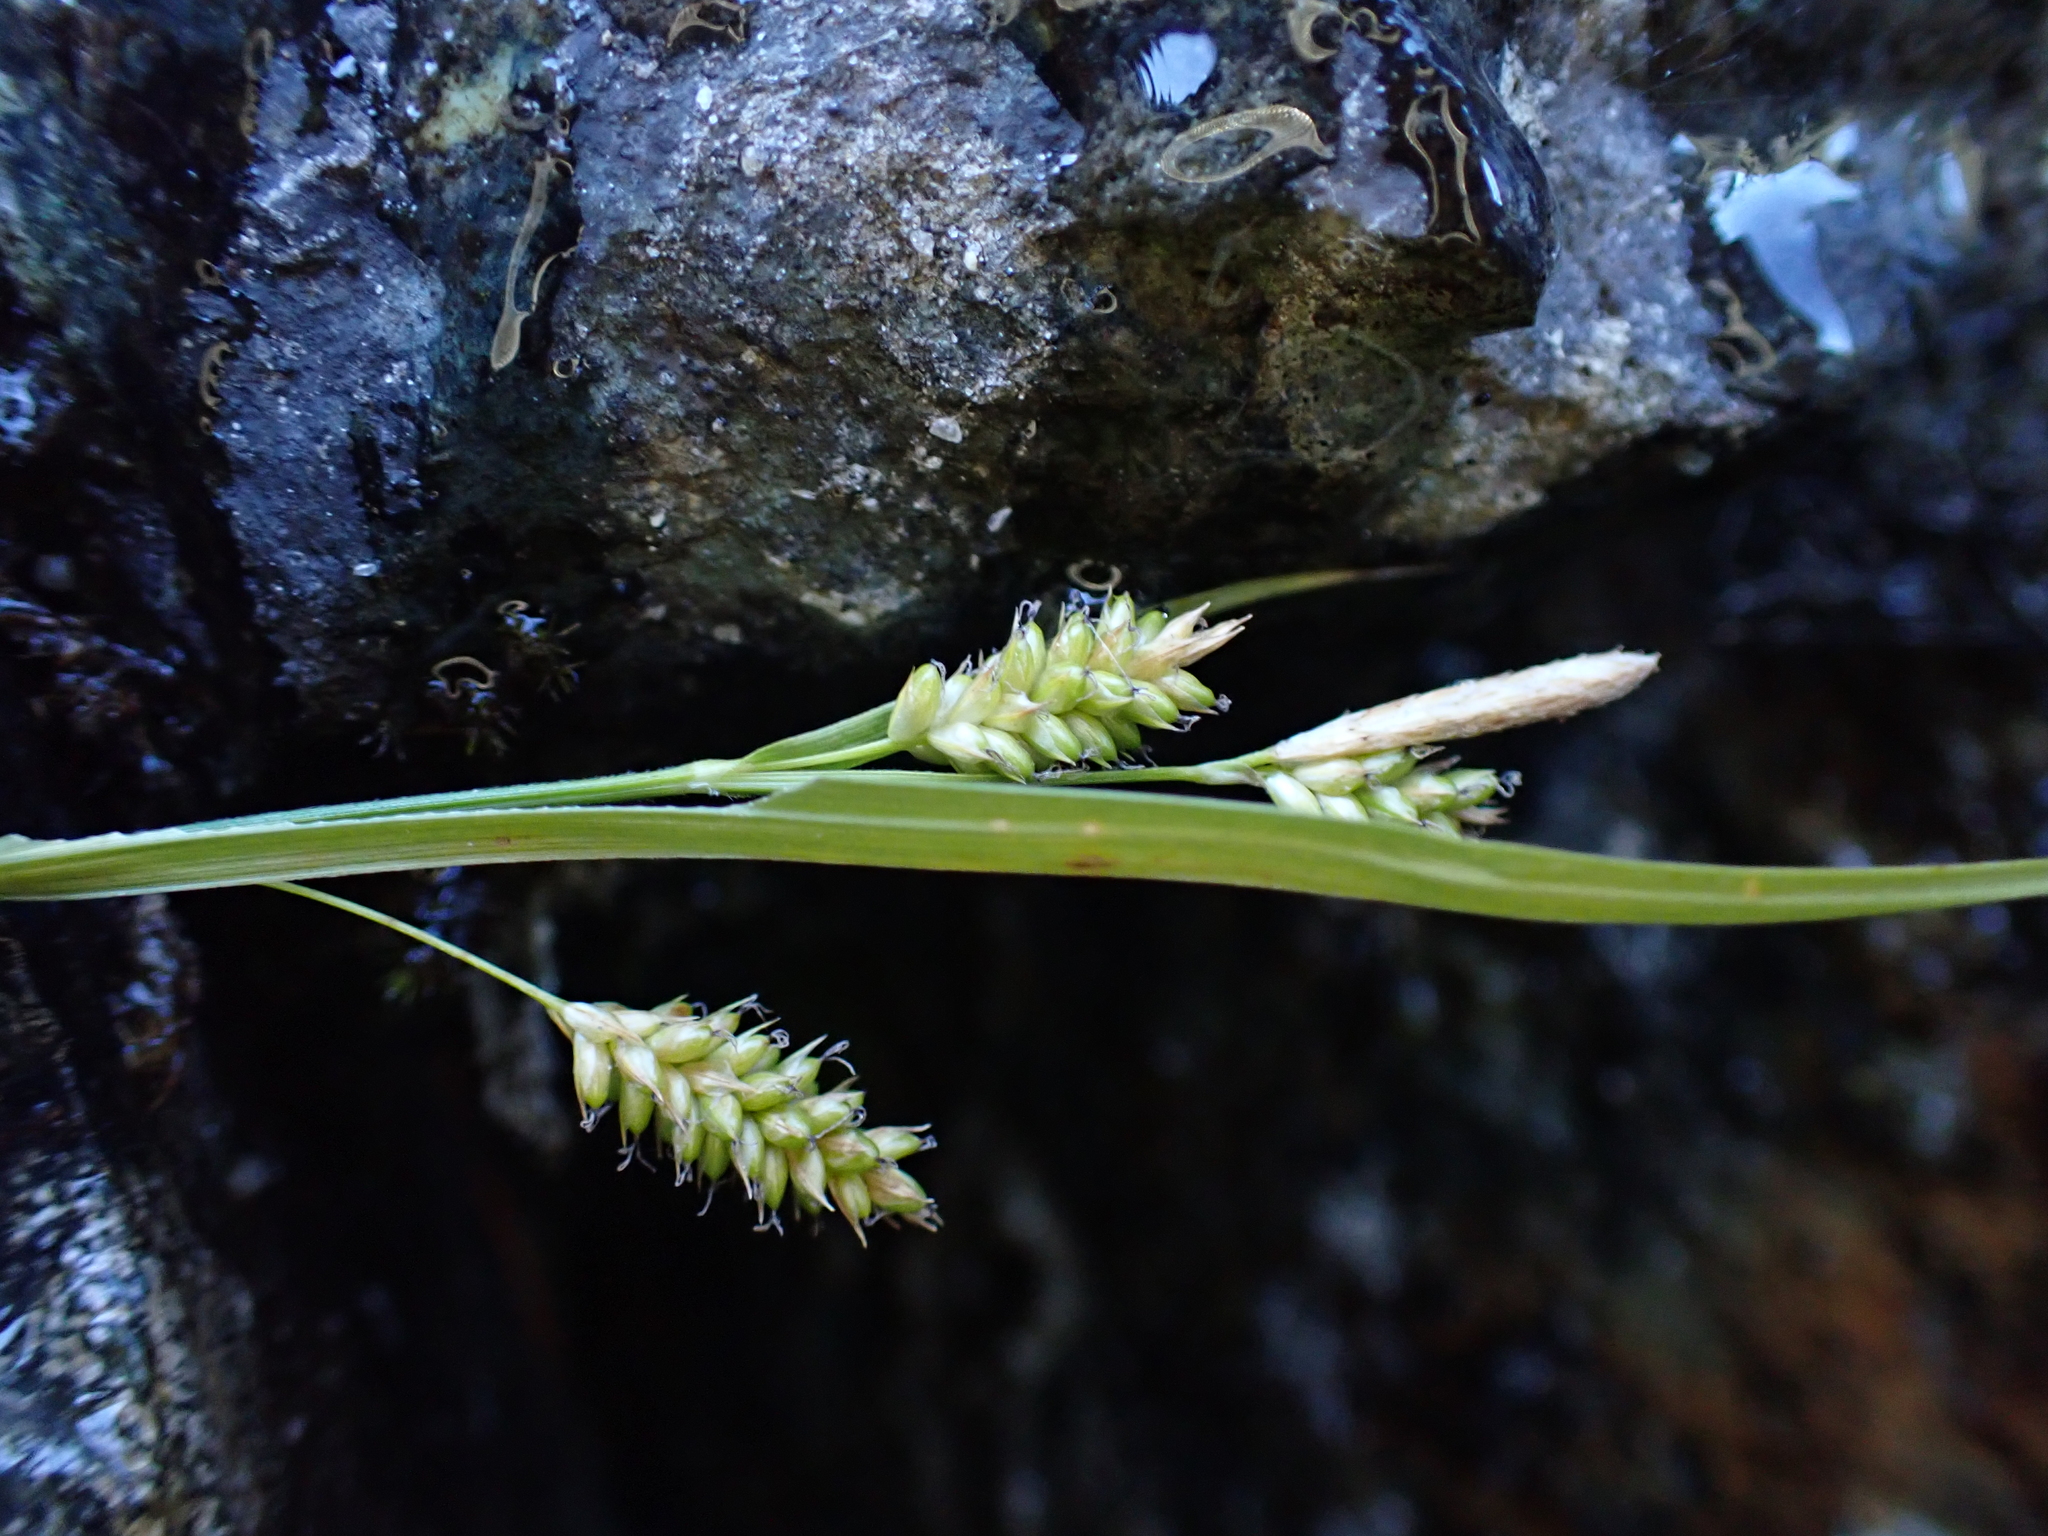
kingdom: Plantae
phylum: Tracheophyta
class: Liliopsida
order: Poales
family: Cyperaceae
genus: Carex
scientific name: Carex pallescens
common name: Pale sedge
